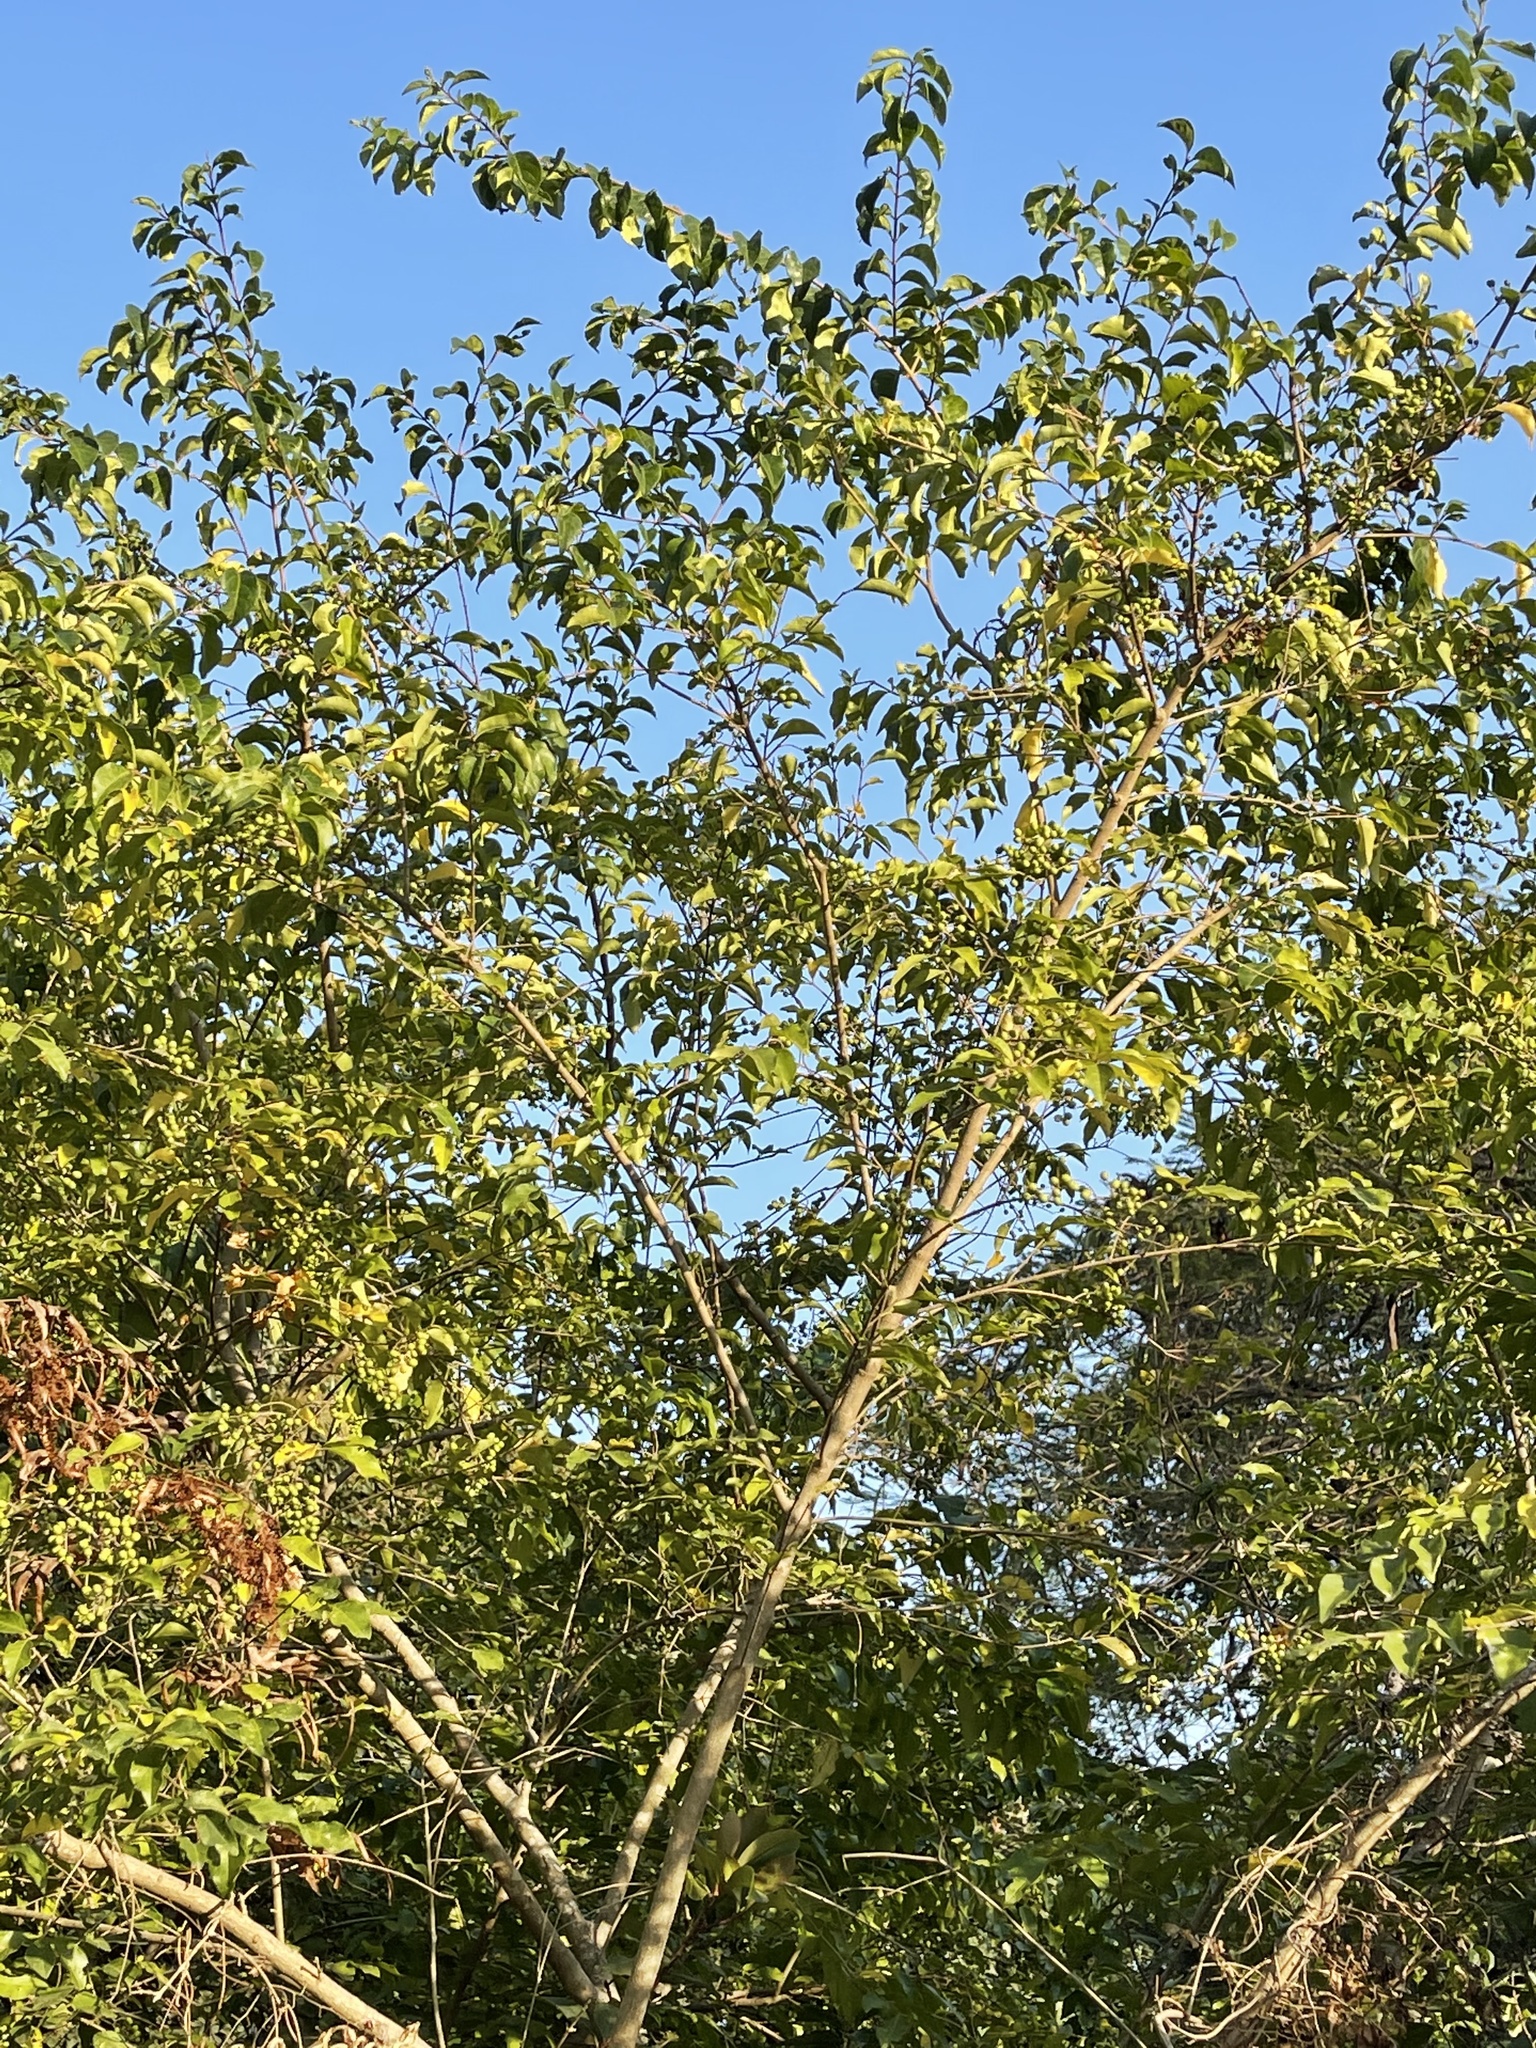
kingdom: Plantae
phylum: Tracheophyta
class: Magnoliopsida
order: Lamiales
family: Oleaceae
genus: Ligustrum
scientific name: Ligustrum sinense
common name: Chinese privet
